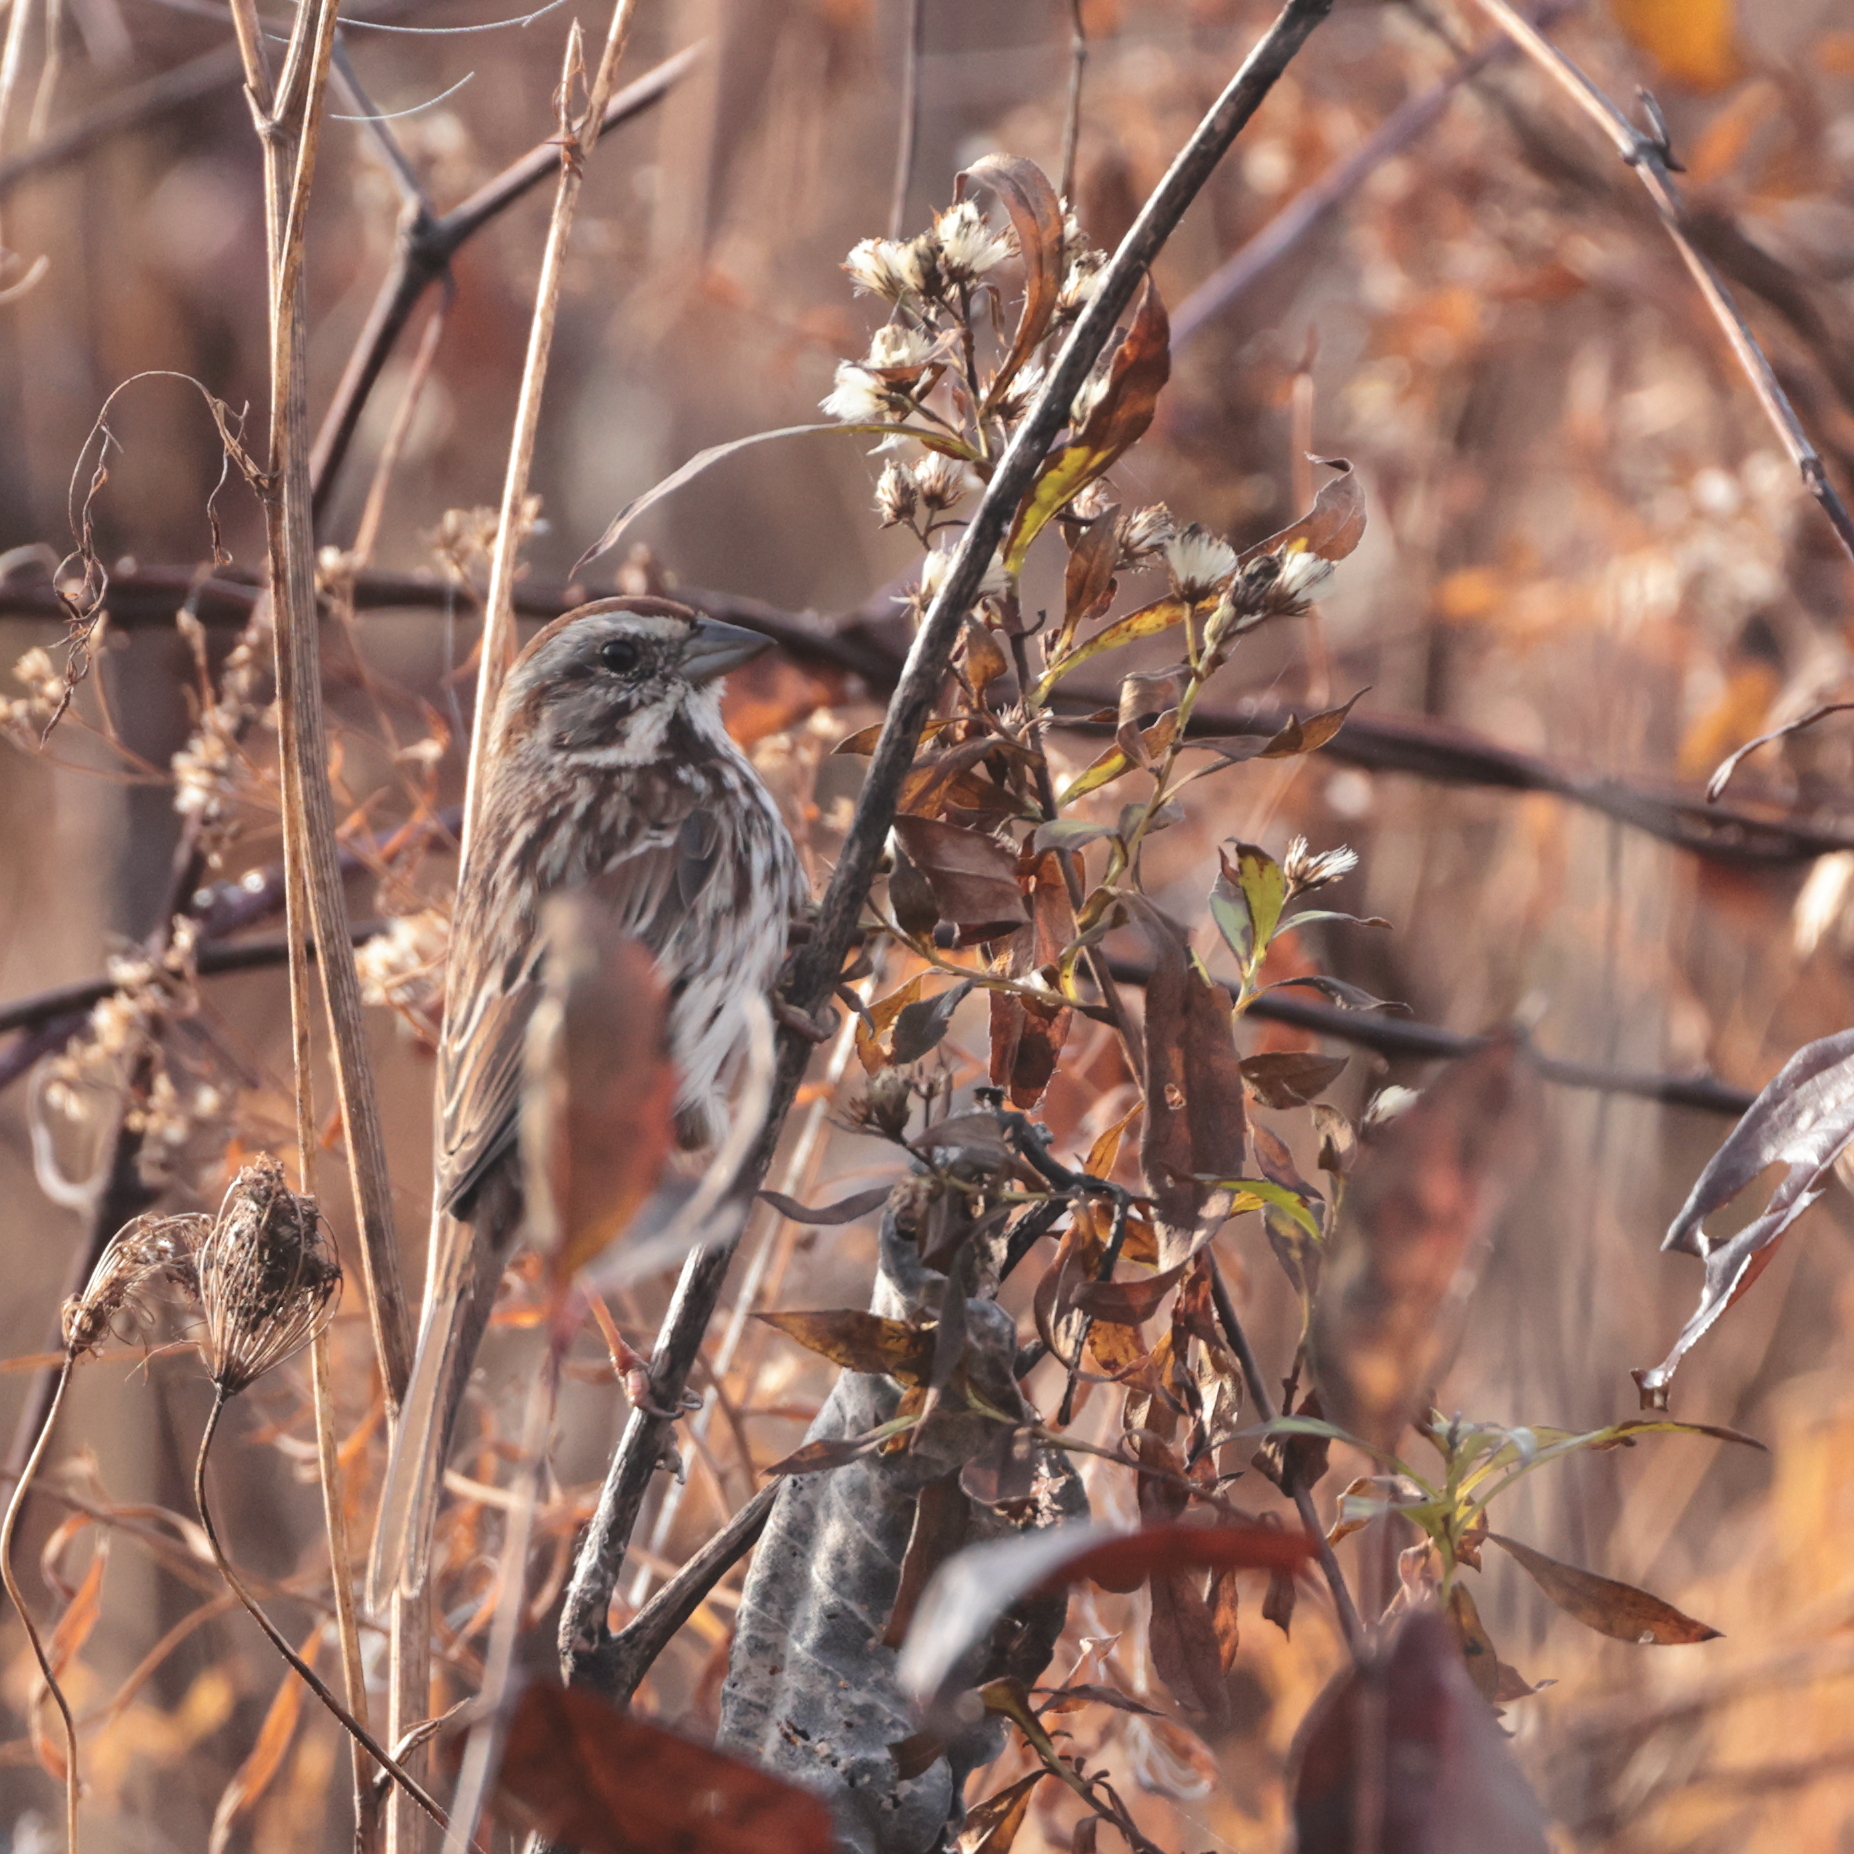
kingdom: Animalia
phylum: Chordata
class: Aves
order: Passeriformes
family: Passerellidae
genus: Melospiza
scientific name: Melospiza melodia
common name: Song sparrow
